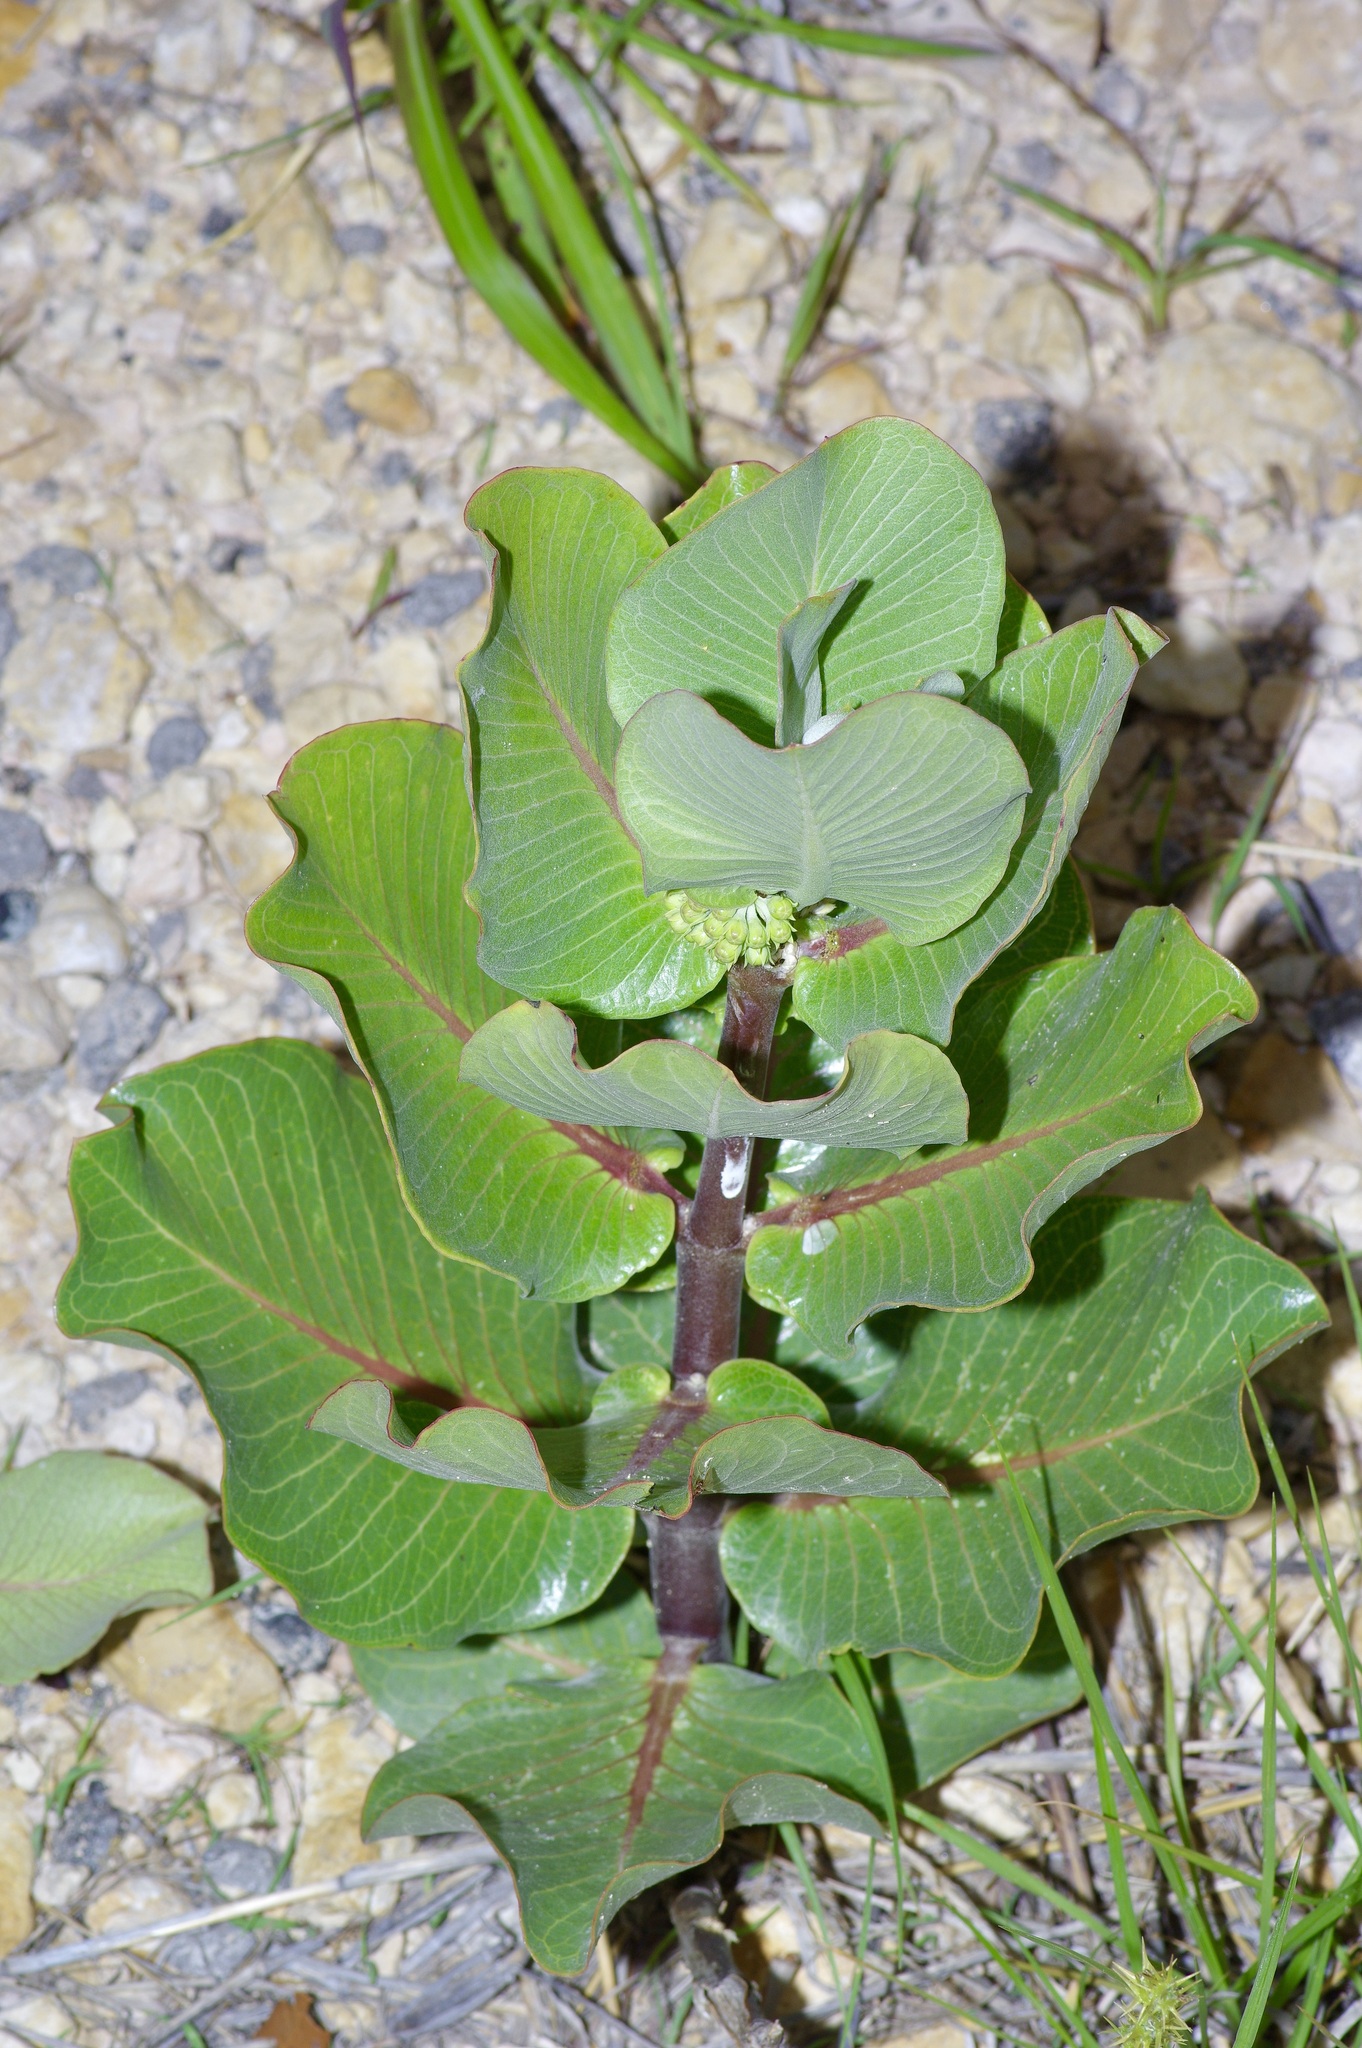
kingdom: Plantae
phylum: Tracheophyta
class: Magnoliopsida
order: Gentianales
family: Apocynaceae
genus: Asclepias
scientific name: Asclepias latifolia
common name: Broadleaf milkweed
